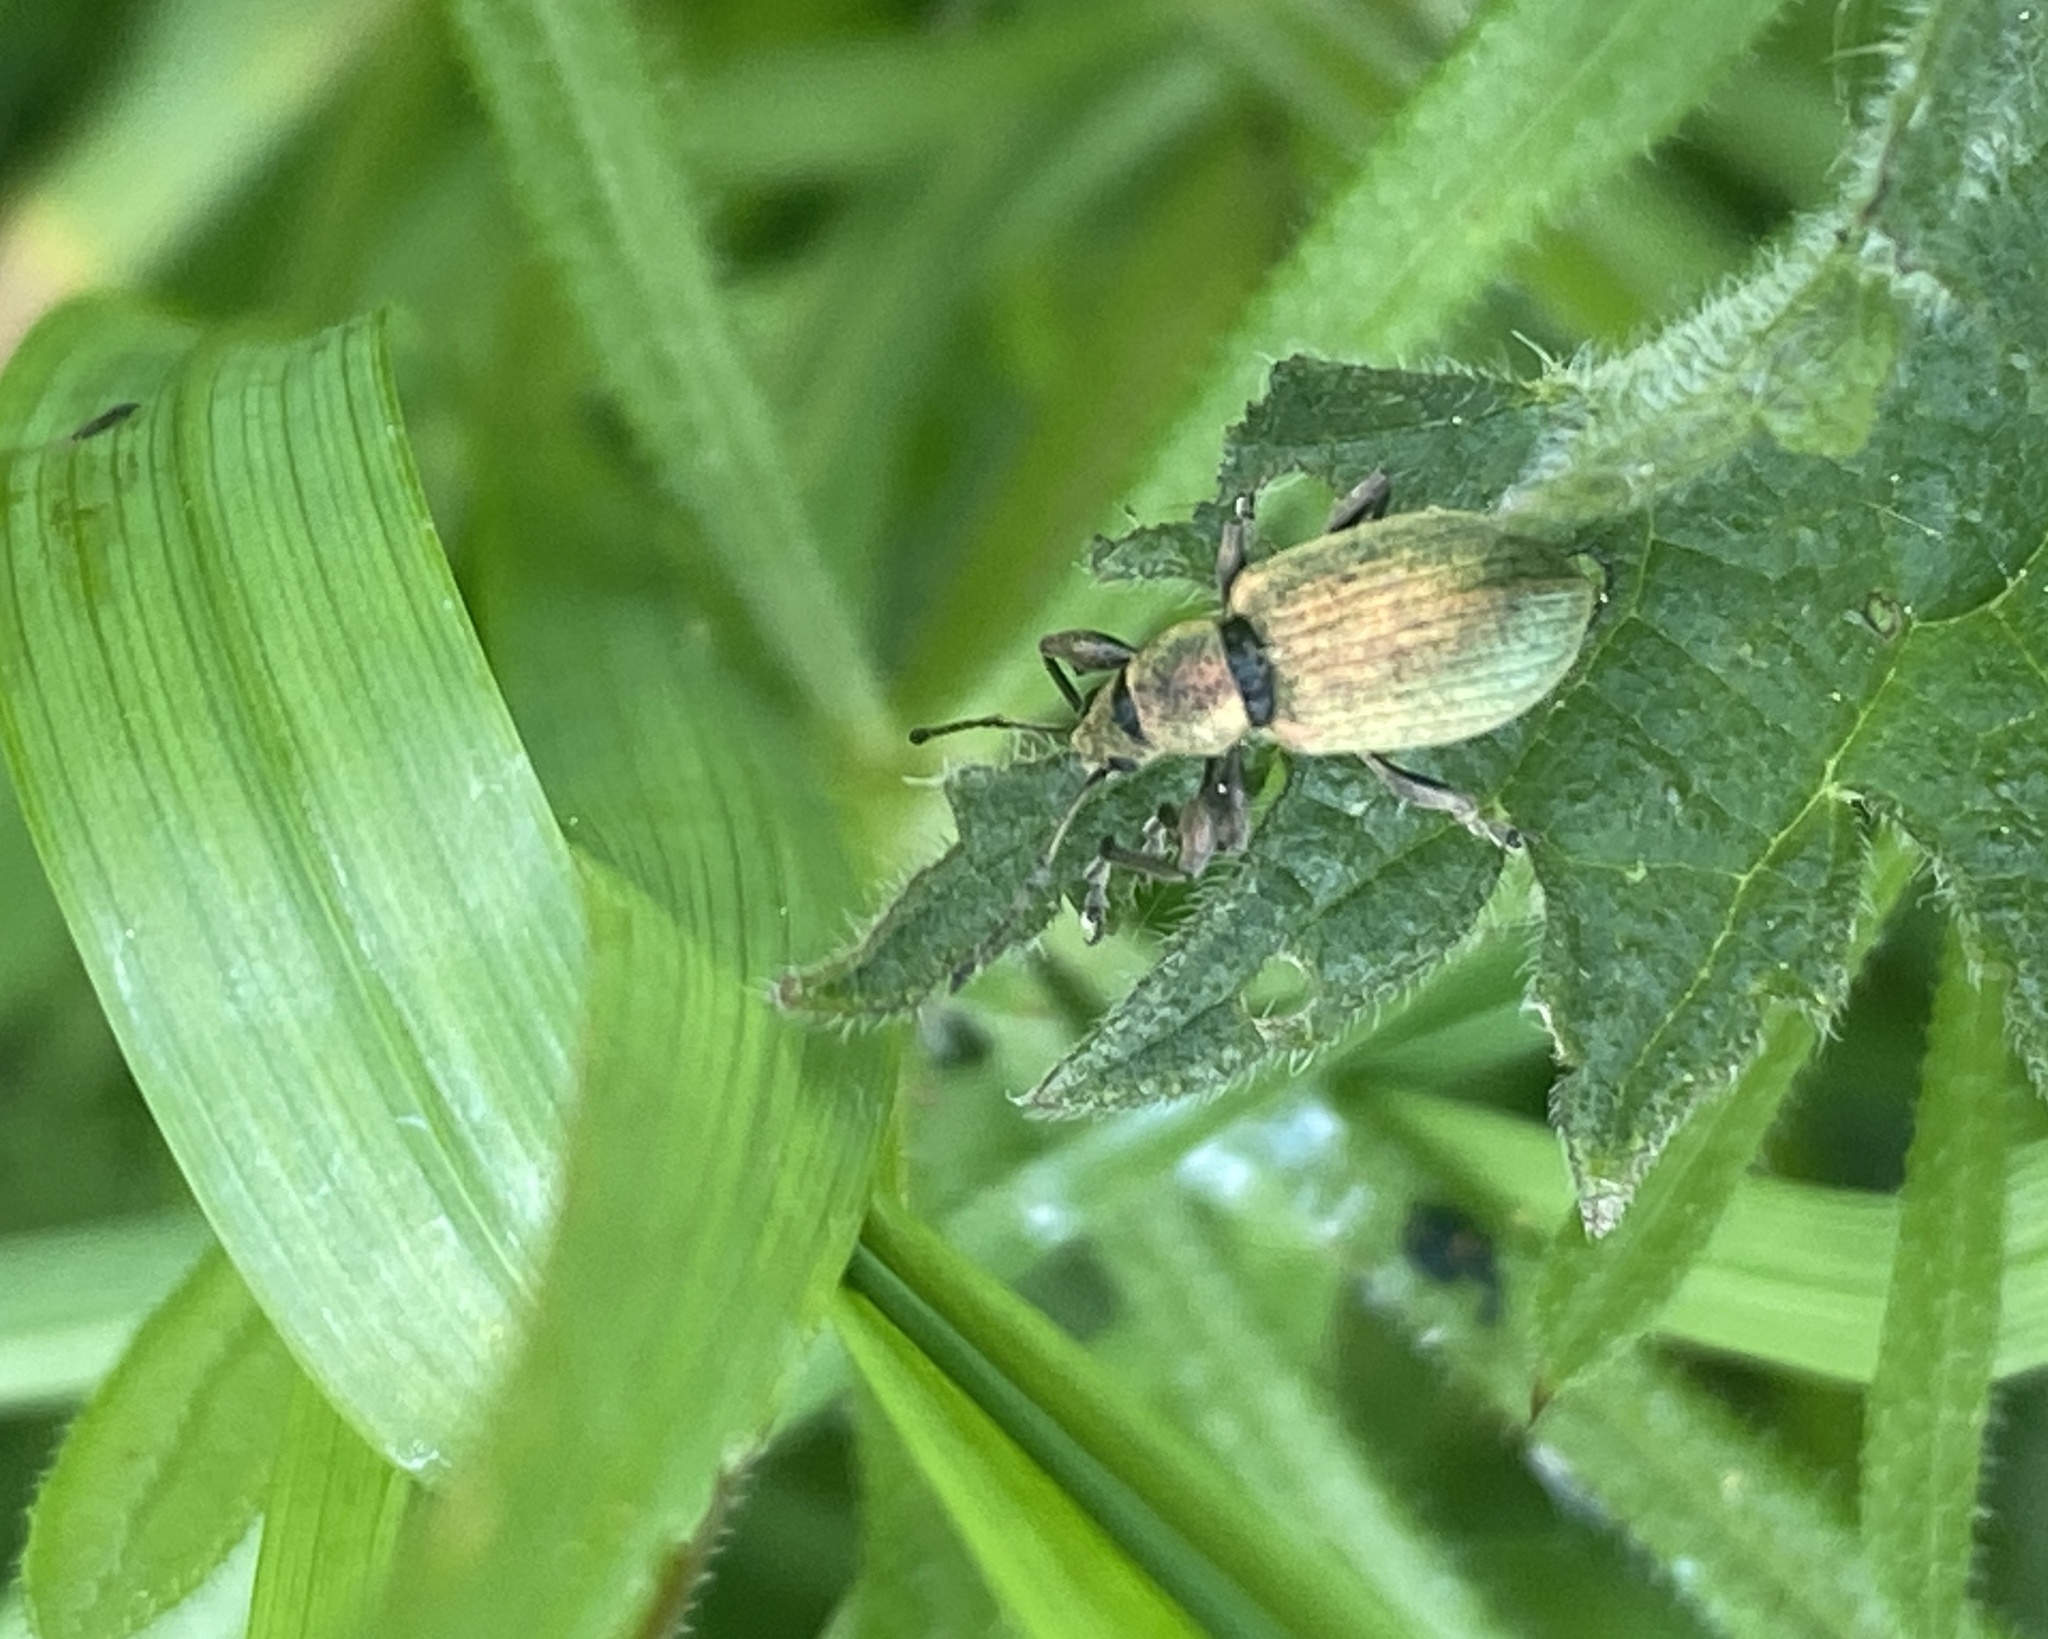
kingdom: Animalia
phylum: Arthropoda
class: Insecta
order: Coleoptera
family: Curculionidae
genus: Phyllobius
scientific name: Phyllobius pomaceus
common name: Green nettle weevil
